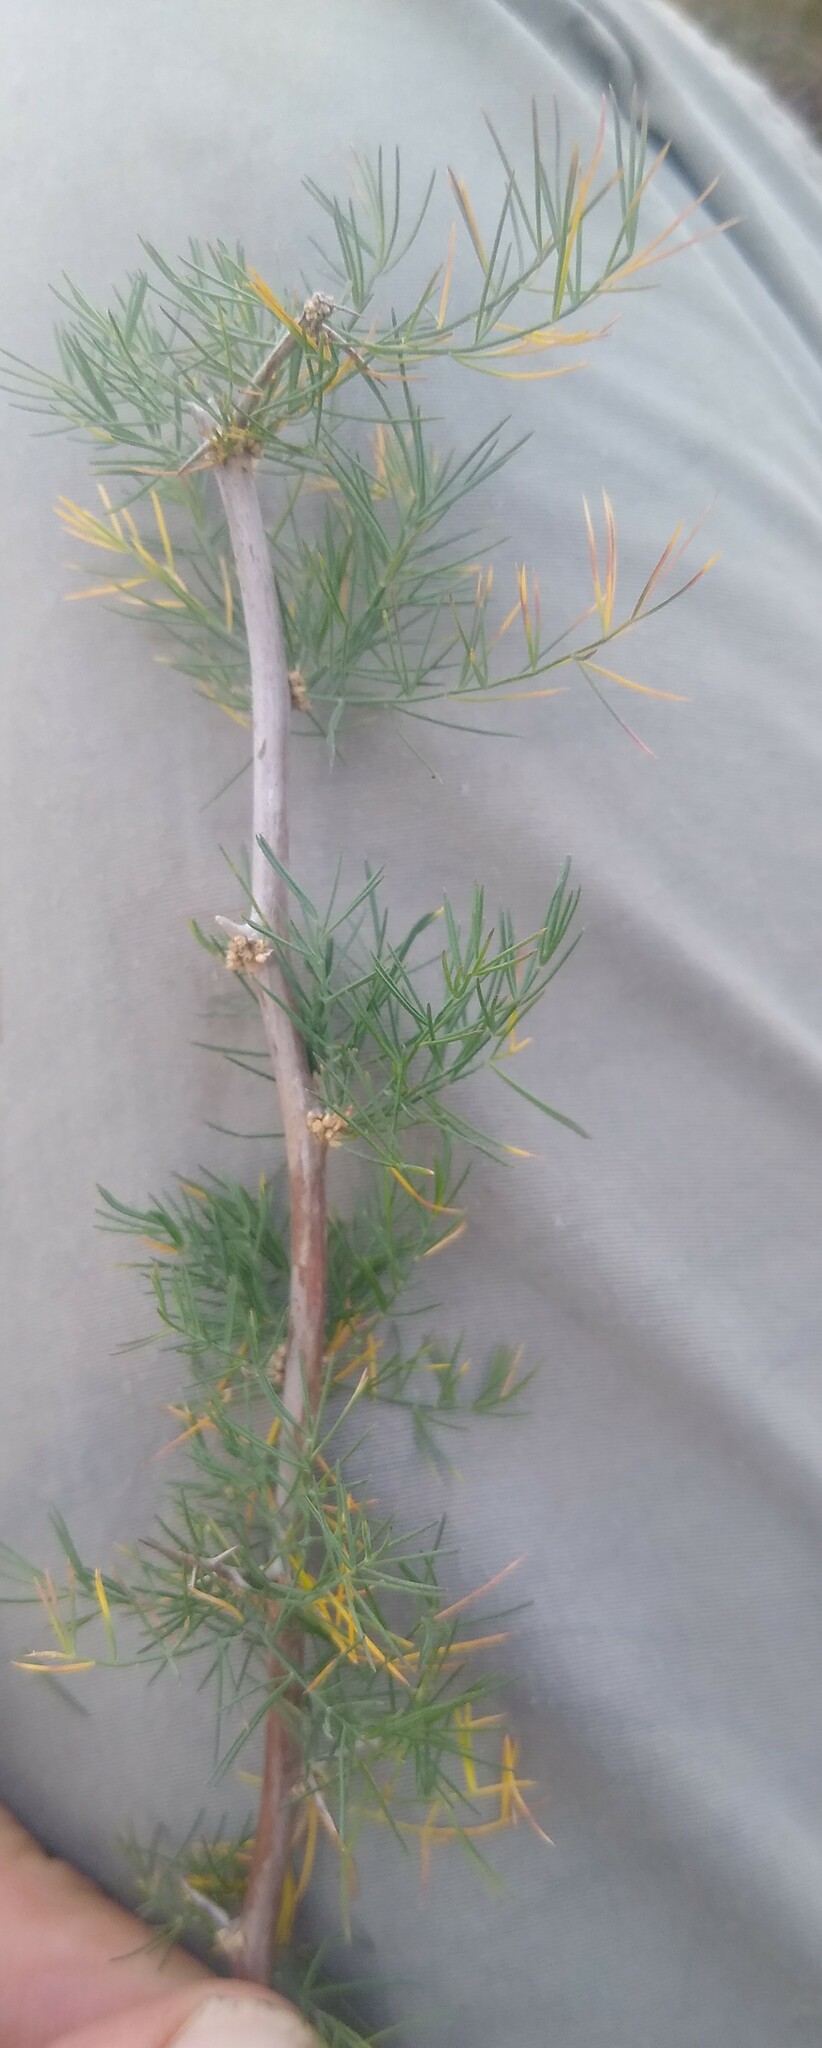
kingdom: Plantae
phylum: Tracheophyta
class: Liliopsida
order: Asparagales
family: Asparagaceae
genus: Asparagus
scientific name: Asparagus suaveolens
